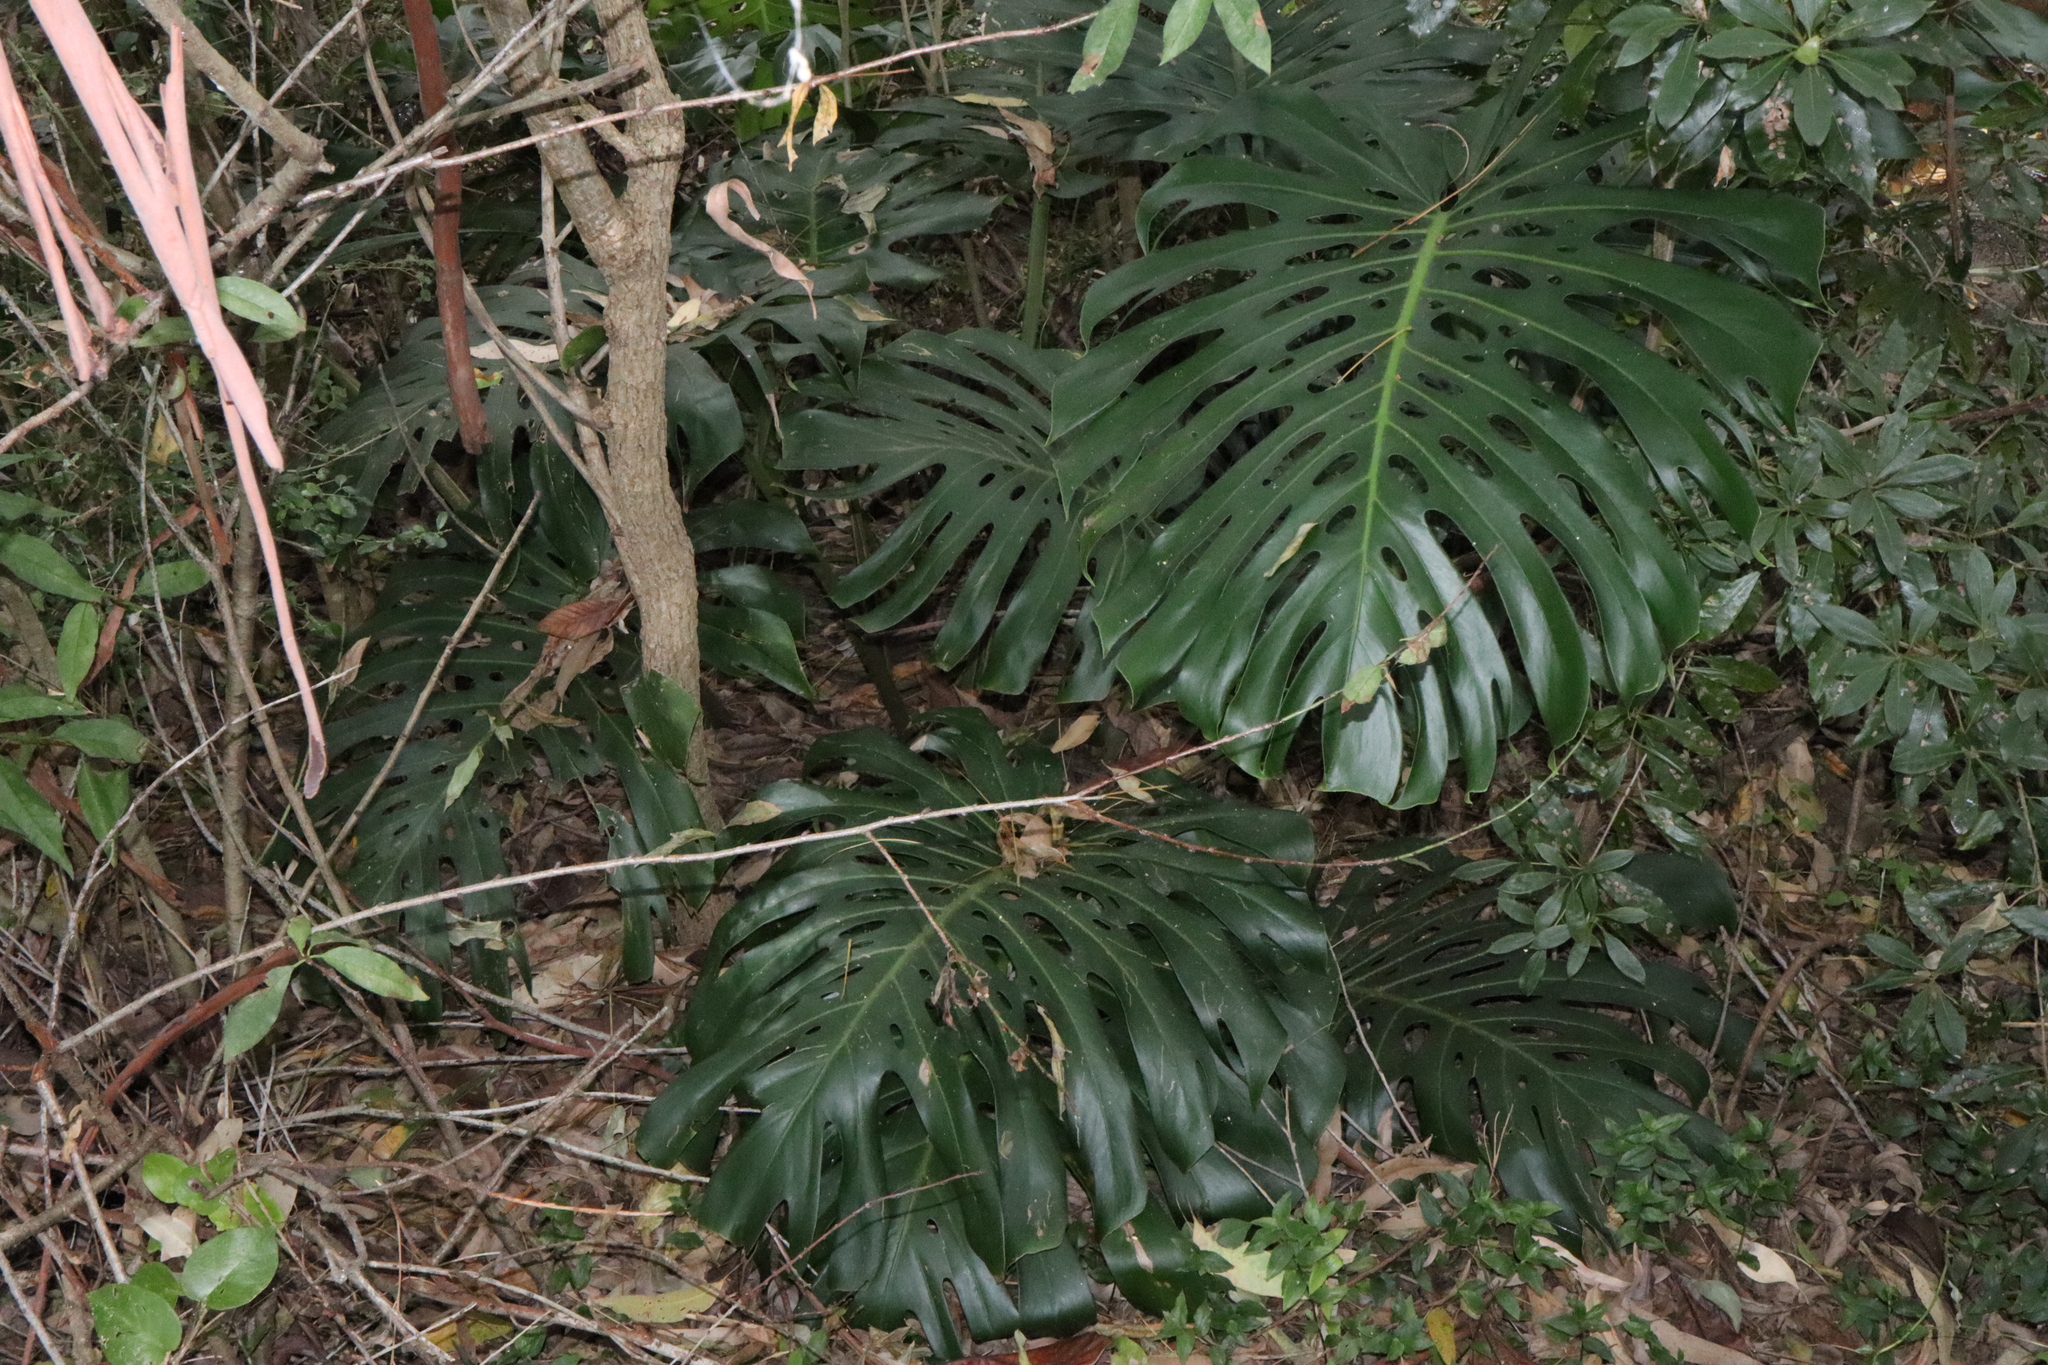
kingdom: Plantae
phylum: Tracheophyta
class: Liliopsida
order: Alismatales
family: Araceae
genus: Monstera
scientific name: Monstera deliciosa
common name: Cut-leaf-philodendron
